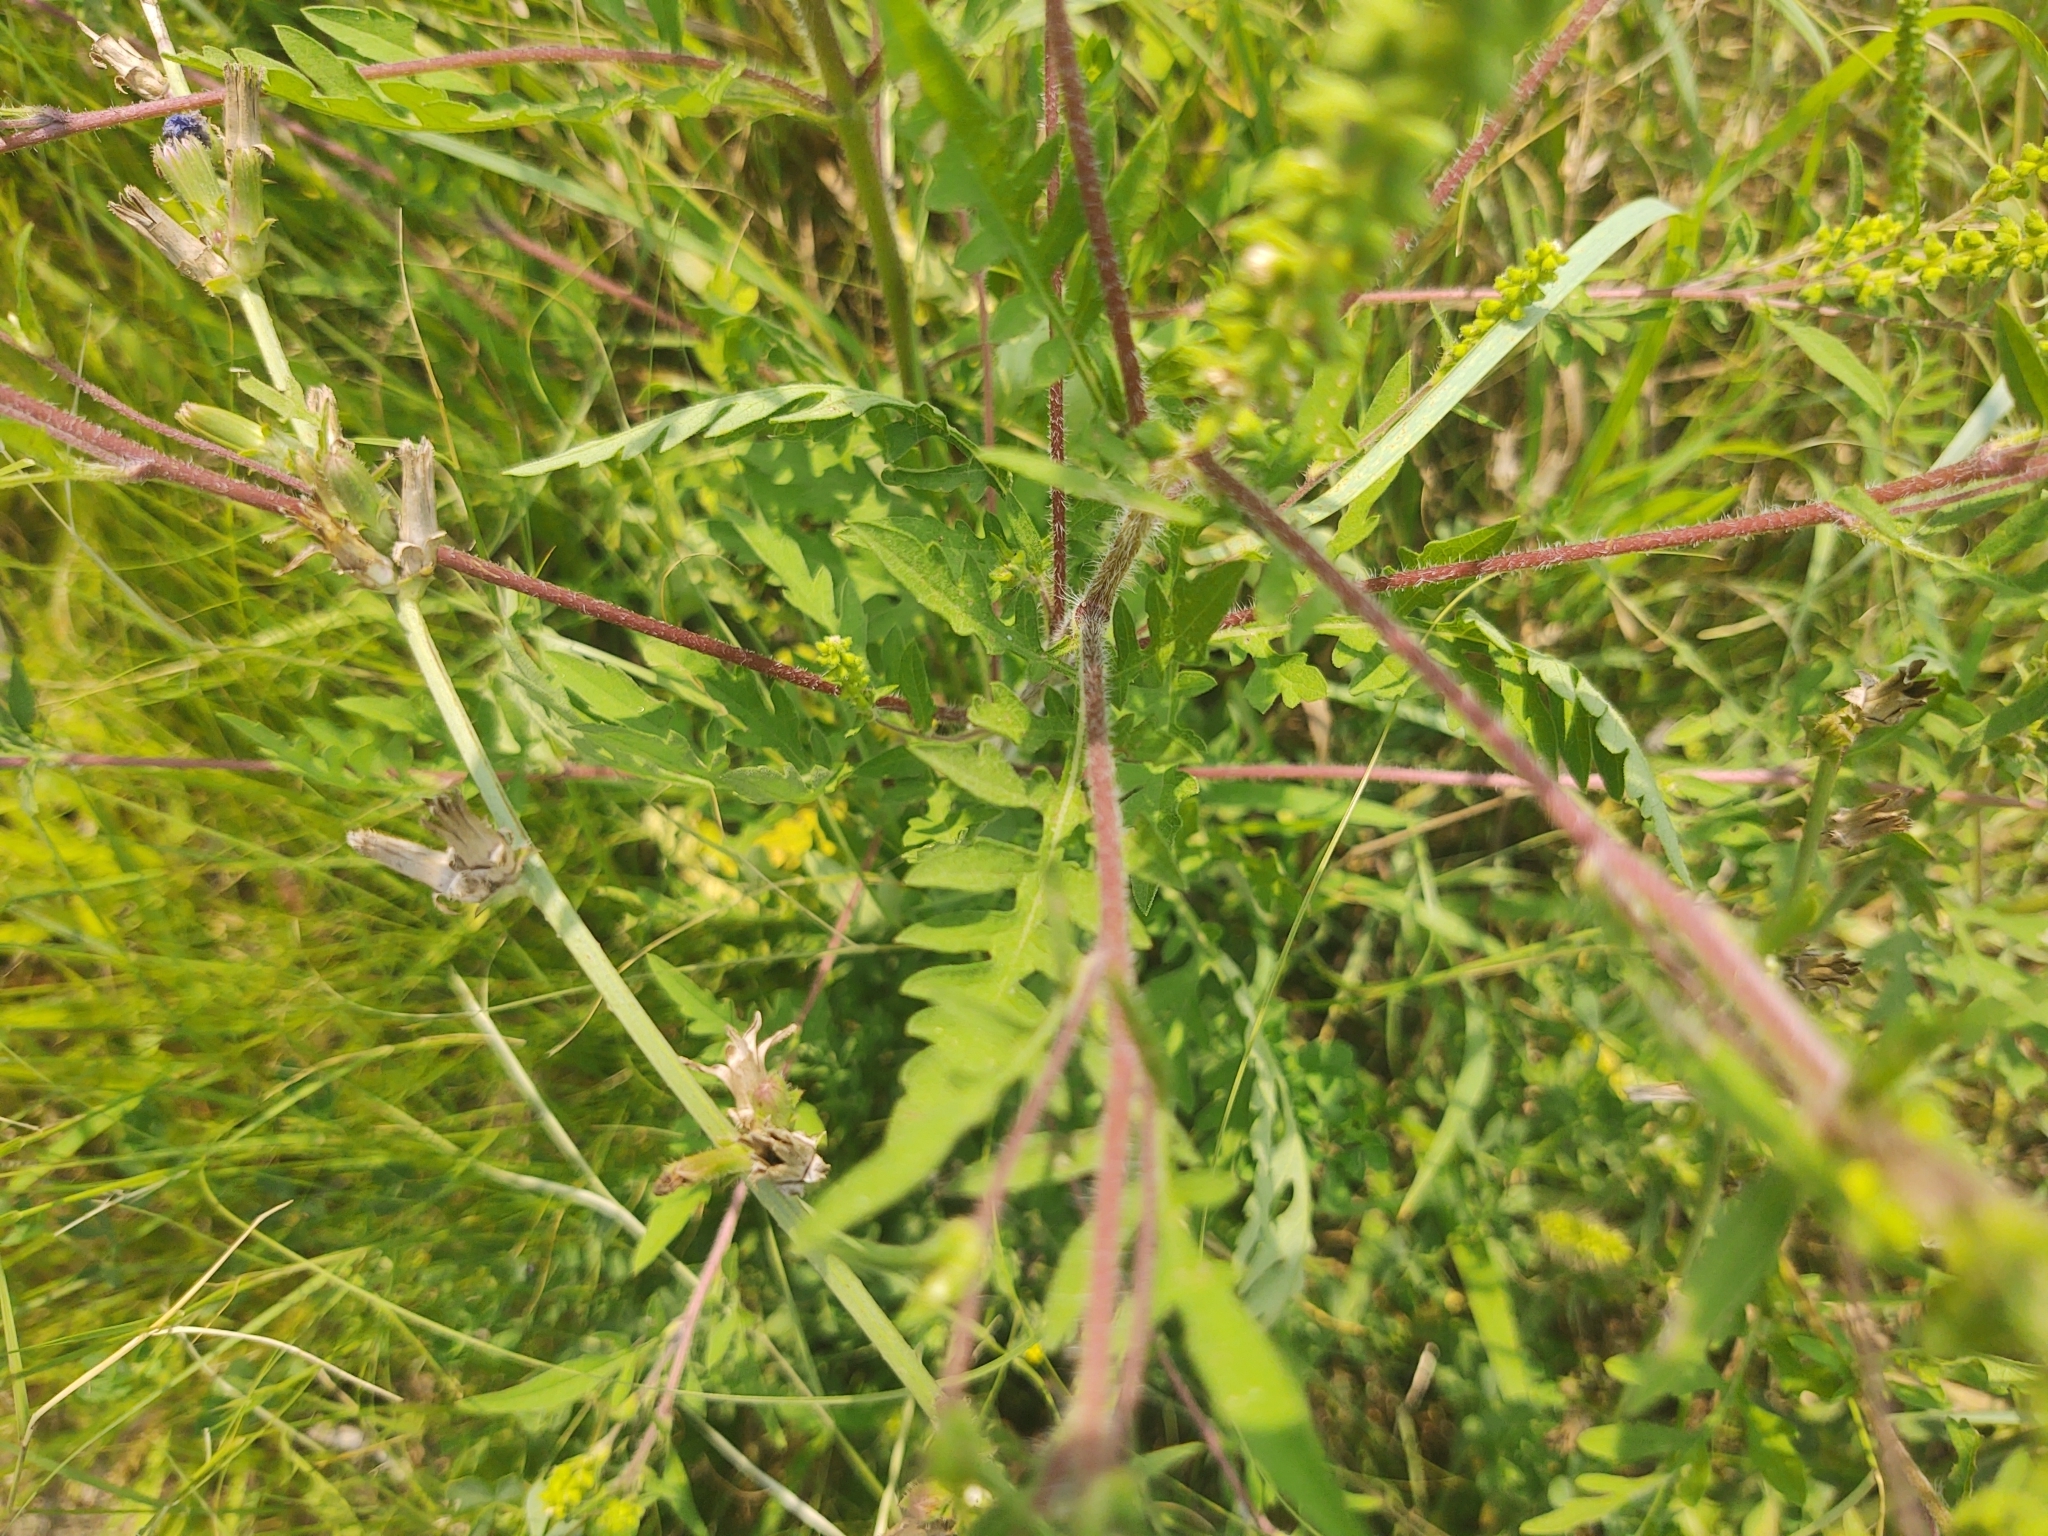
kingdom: Plantae
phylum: Tracheophyta
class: Magnoliopsida
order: Asterales
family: Asteraceae
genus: Ambrosia
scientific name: Ambrosia artemisiifolia
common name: Annual ragweed
